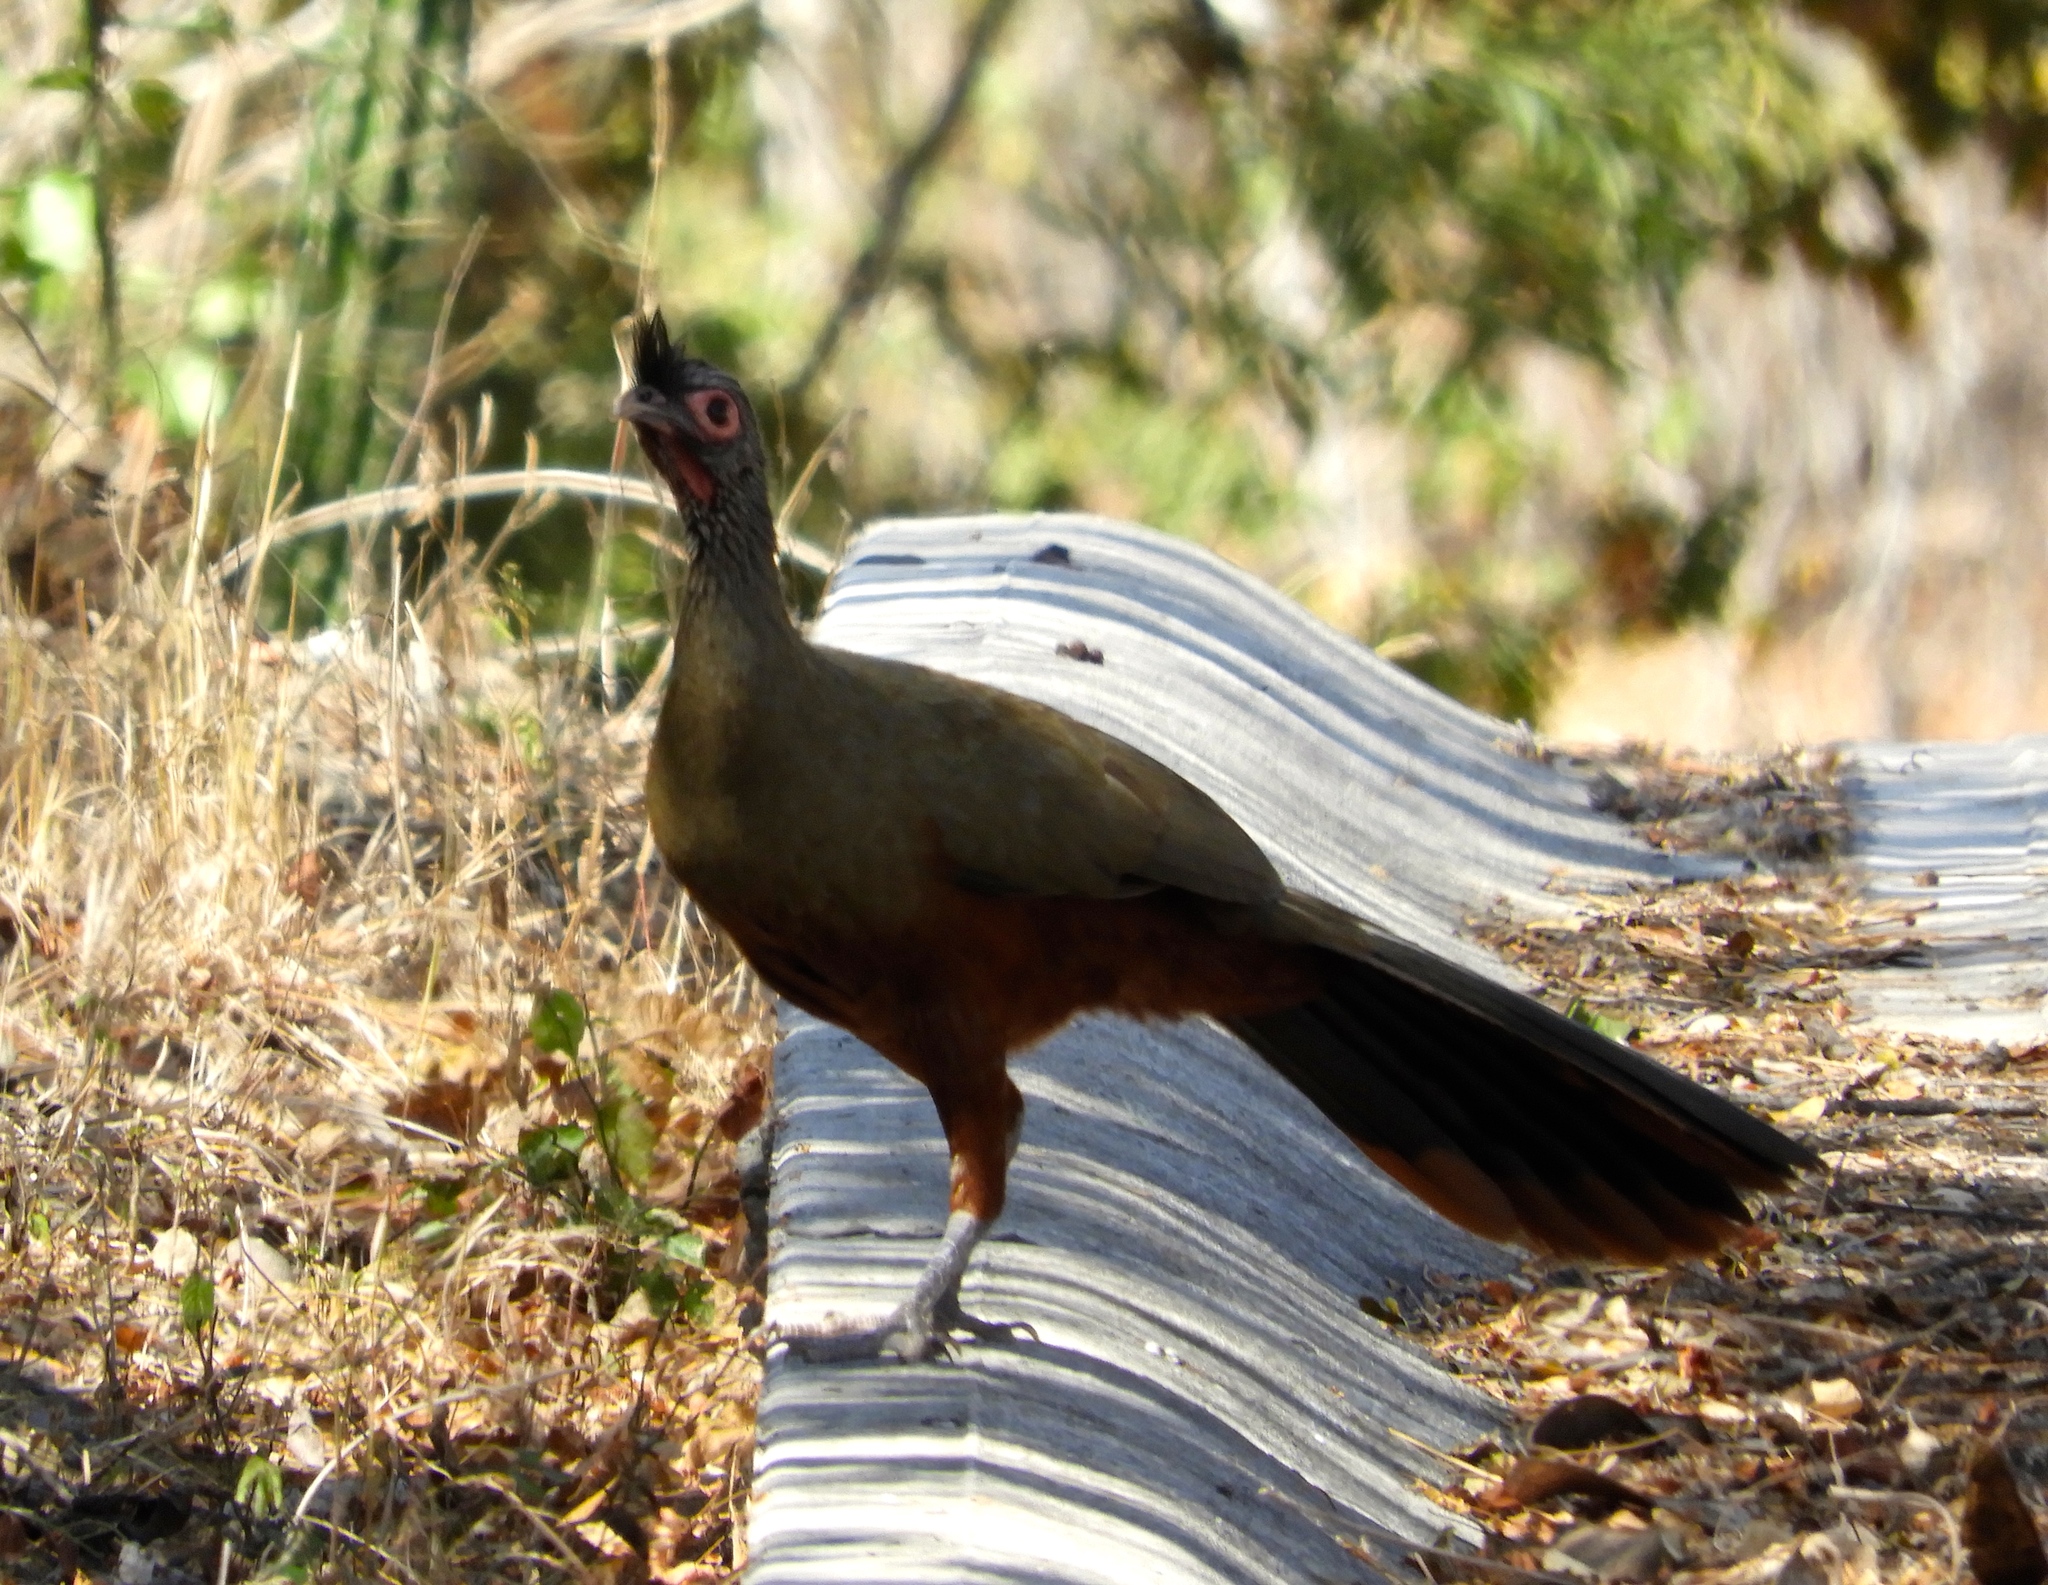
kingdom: Animalia
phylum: Chordata
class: Aves
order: Galliformes
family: Cracidae
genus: Ortalis
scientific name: Ortalis wagleri
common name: Rufous-bellied chachalaca
